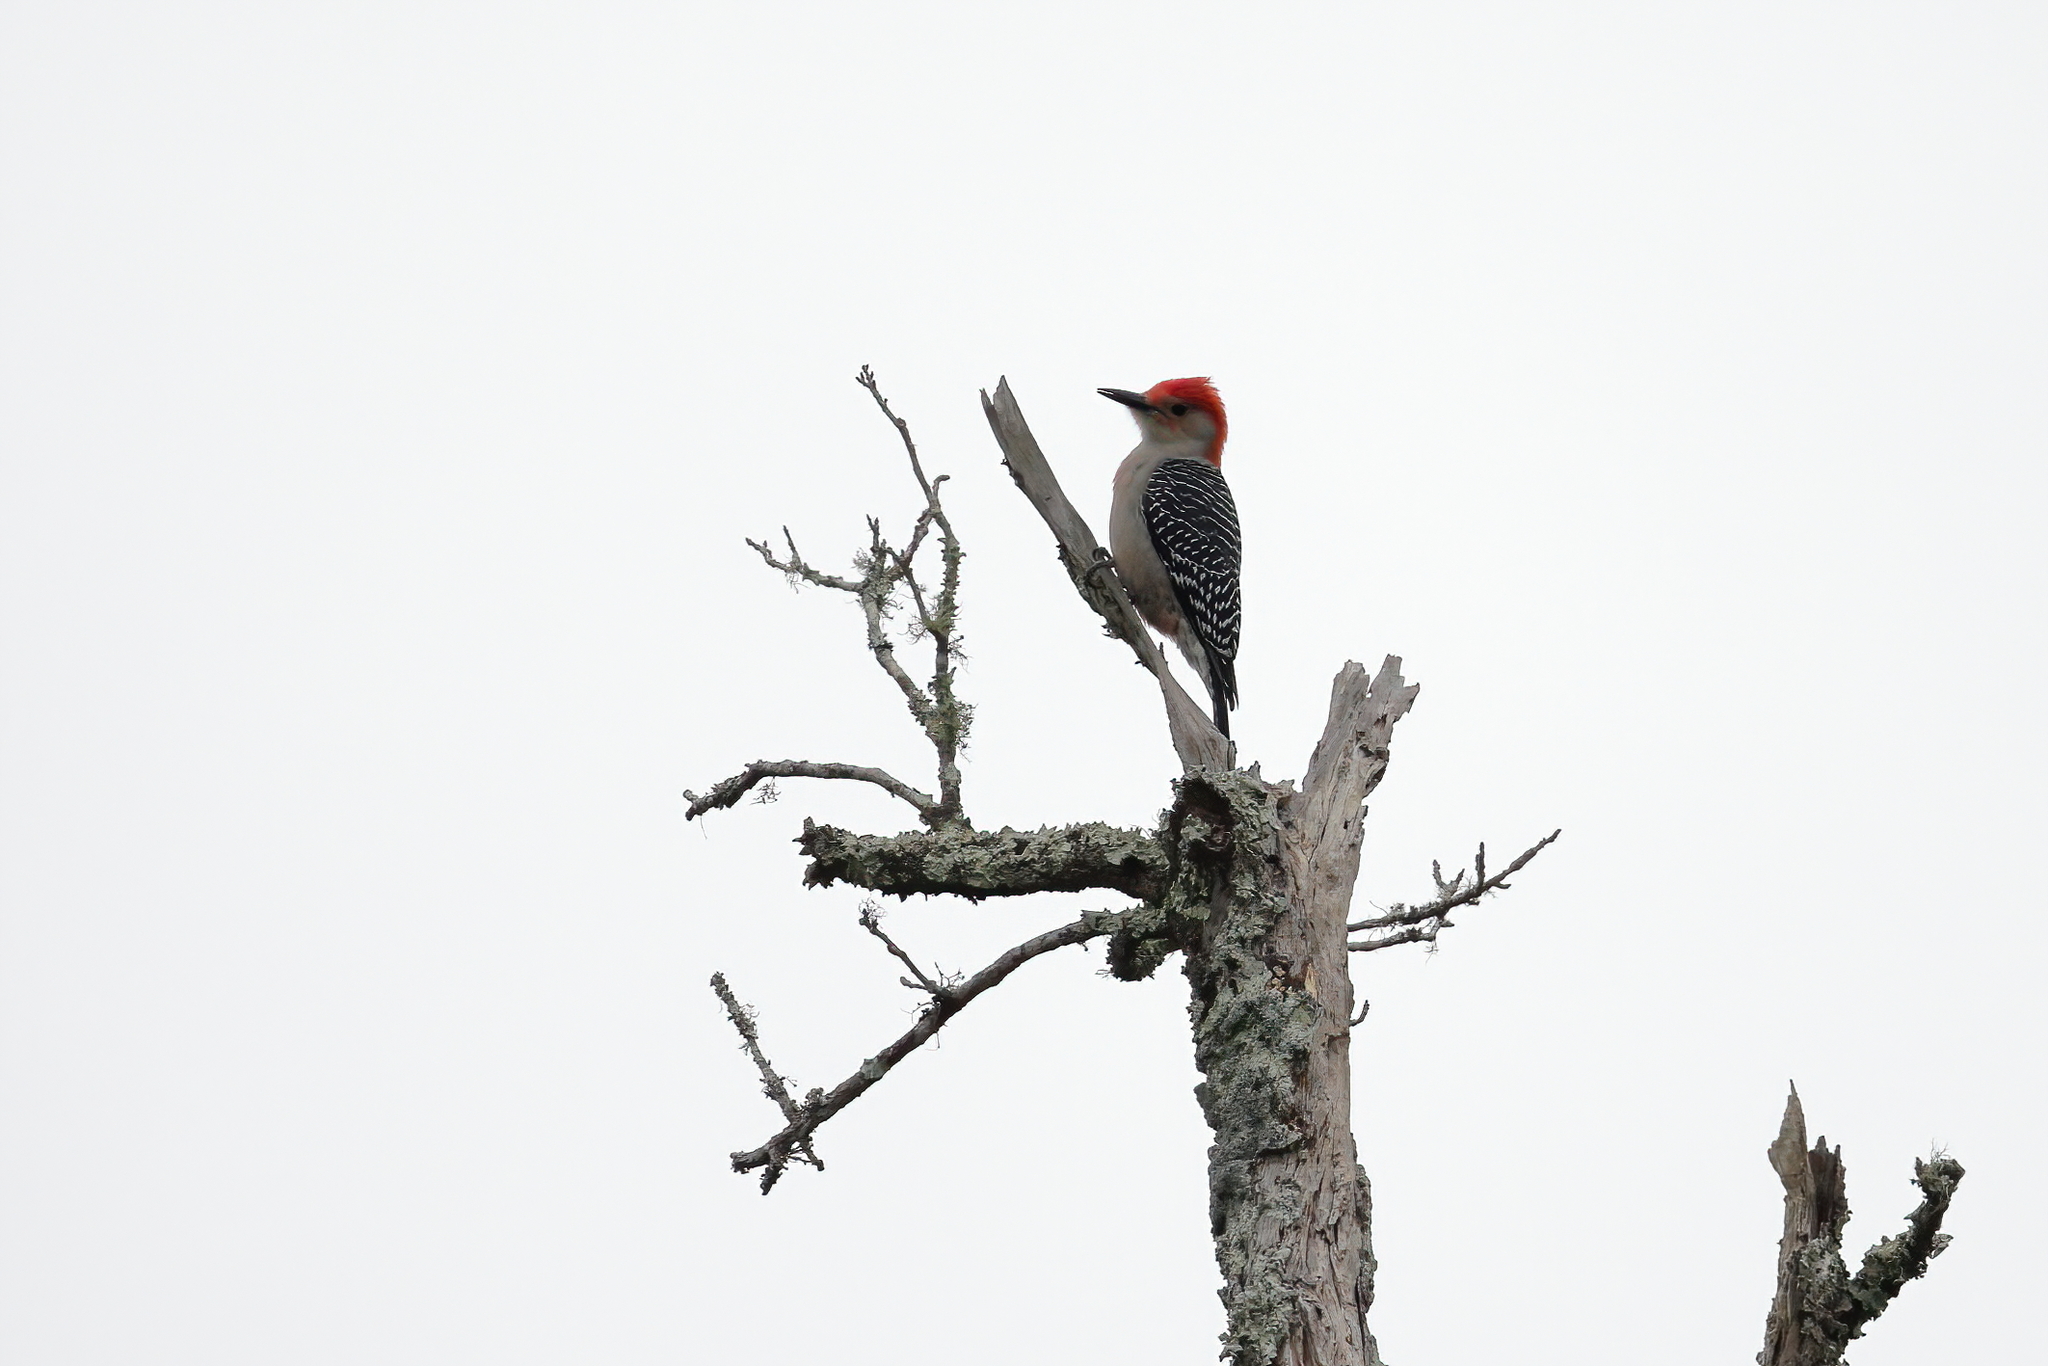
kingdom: Animalia
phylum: Chordata
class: Aves
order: Piciformes
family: Picidae
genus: Melanerpes
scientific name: Melanerpes carolinus
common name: Red-bellied woodpecker
